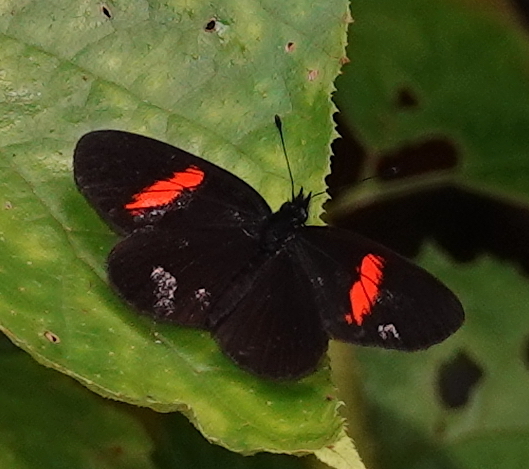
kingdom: Animalia
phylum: Arthropoda
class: Insecta
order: Lepidoptera
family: Nymphalidae
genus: Castilia
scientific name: Castilia castilla
